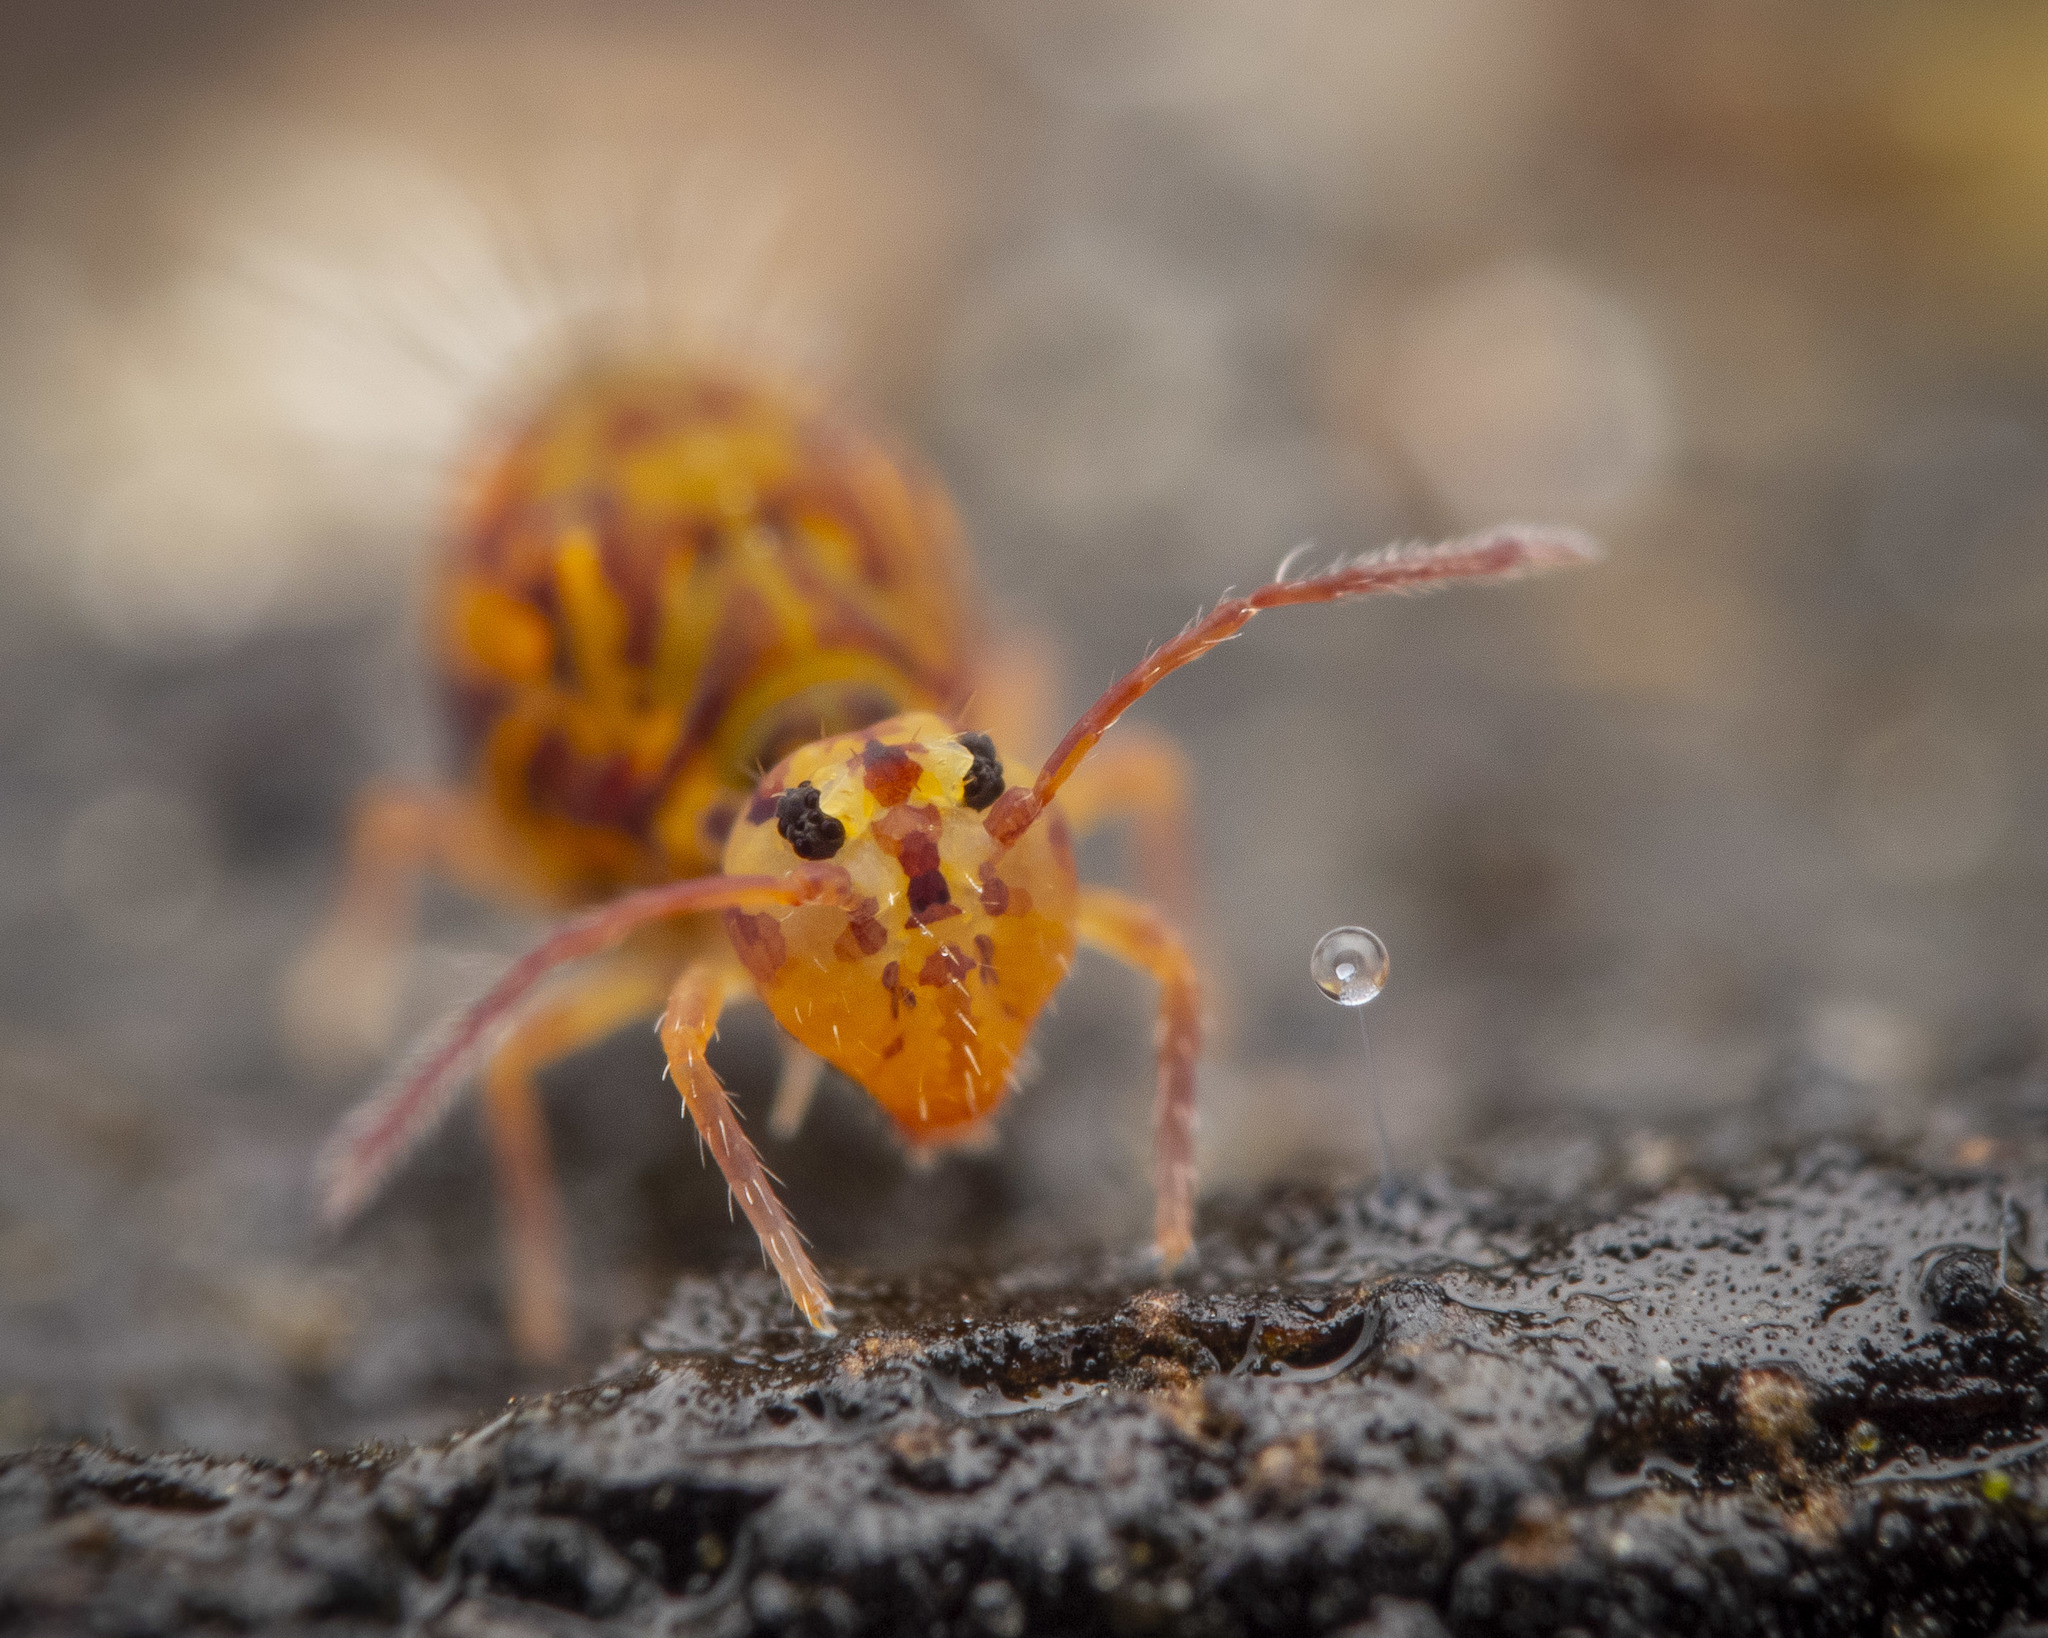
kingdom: Animalia
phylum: Arthropoda
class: Collembola
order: Symphypleona
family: Dicyrtomidae
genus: Dicyrtomina
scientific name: Dicyrtomina ornata
